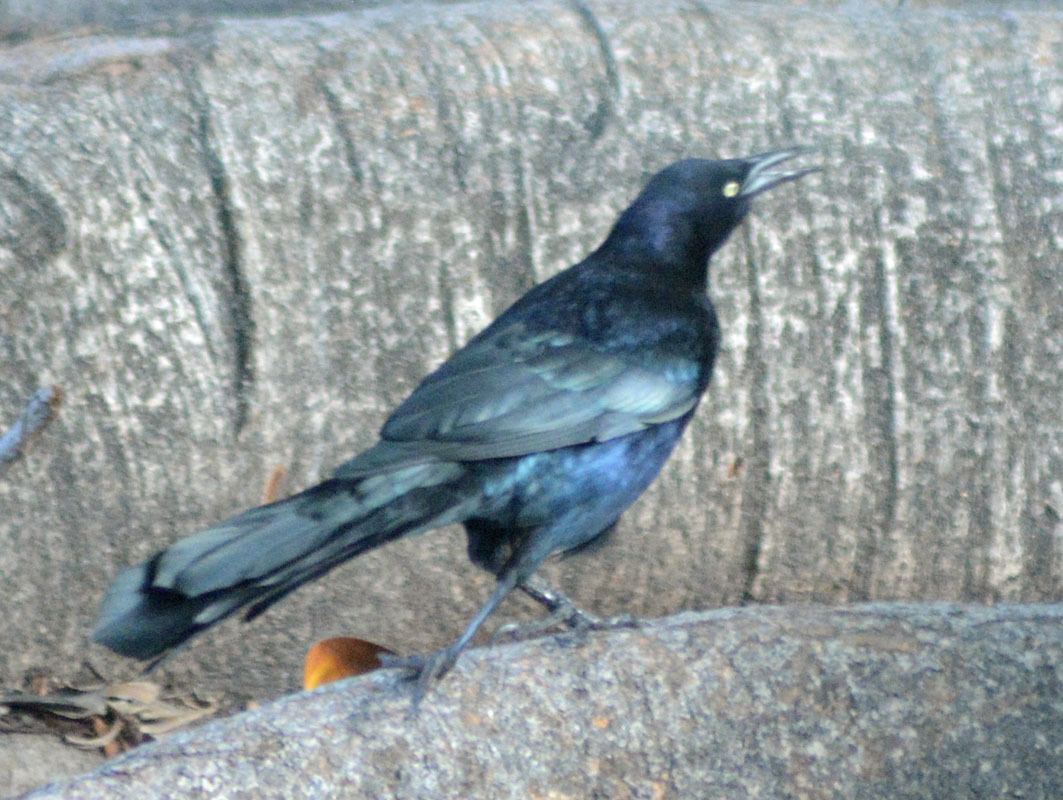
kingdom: Animalia
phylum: Chordata
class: Aves
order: Passeriformes
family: Icteridae
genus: Quiscalus
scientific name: Quiscalus mexicanus
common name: Great-tailed grackle
